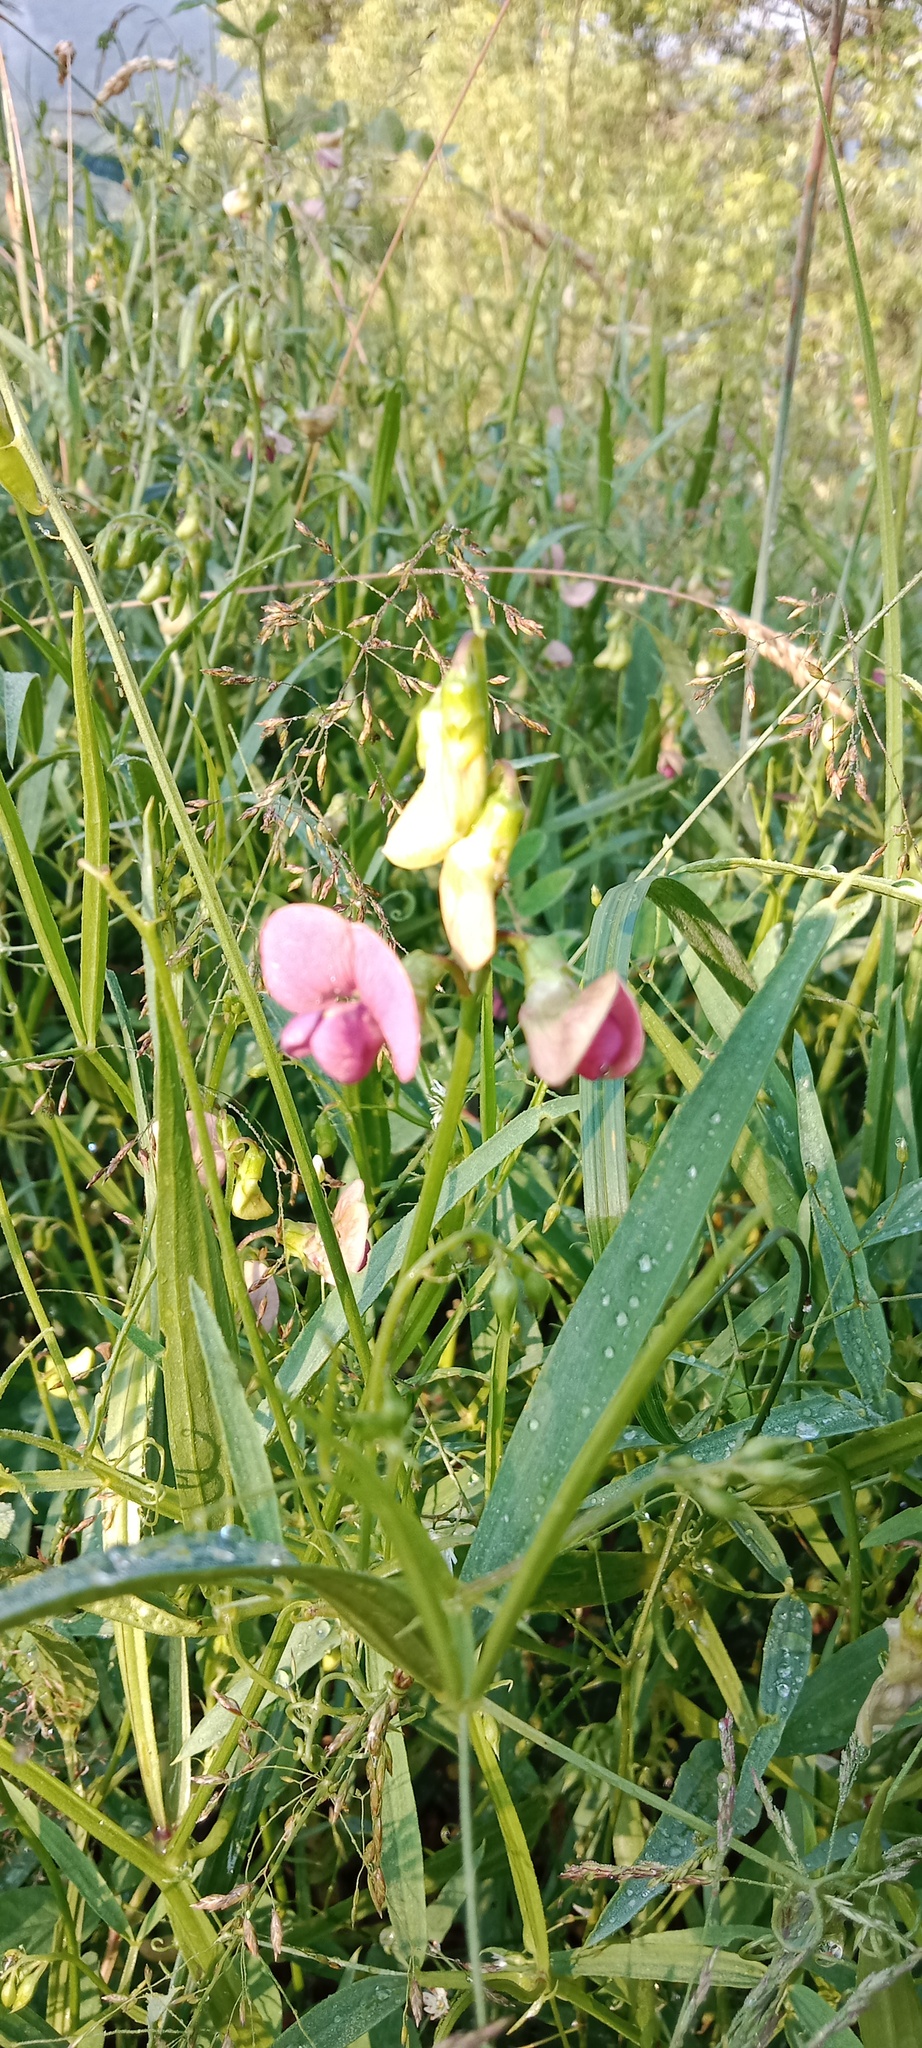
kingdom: Plantae
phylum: Tracheophyta
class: Magnoliopsida
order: Fabales
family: Fabaceae
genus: Lathyrus
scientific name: Lathyrus sylvestris
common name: Flat pea
